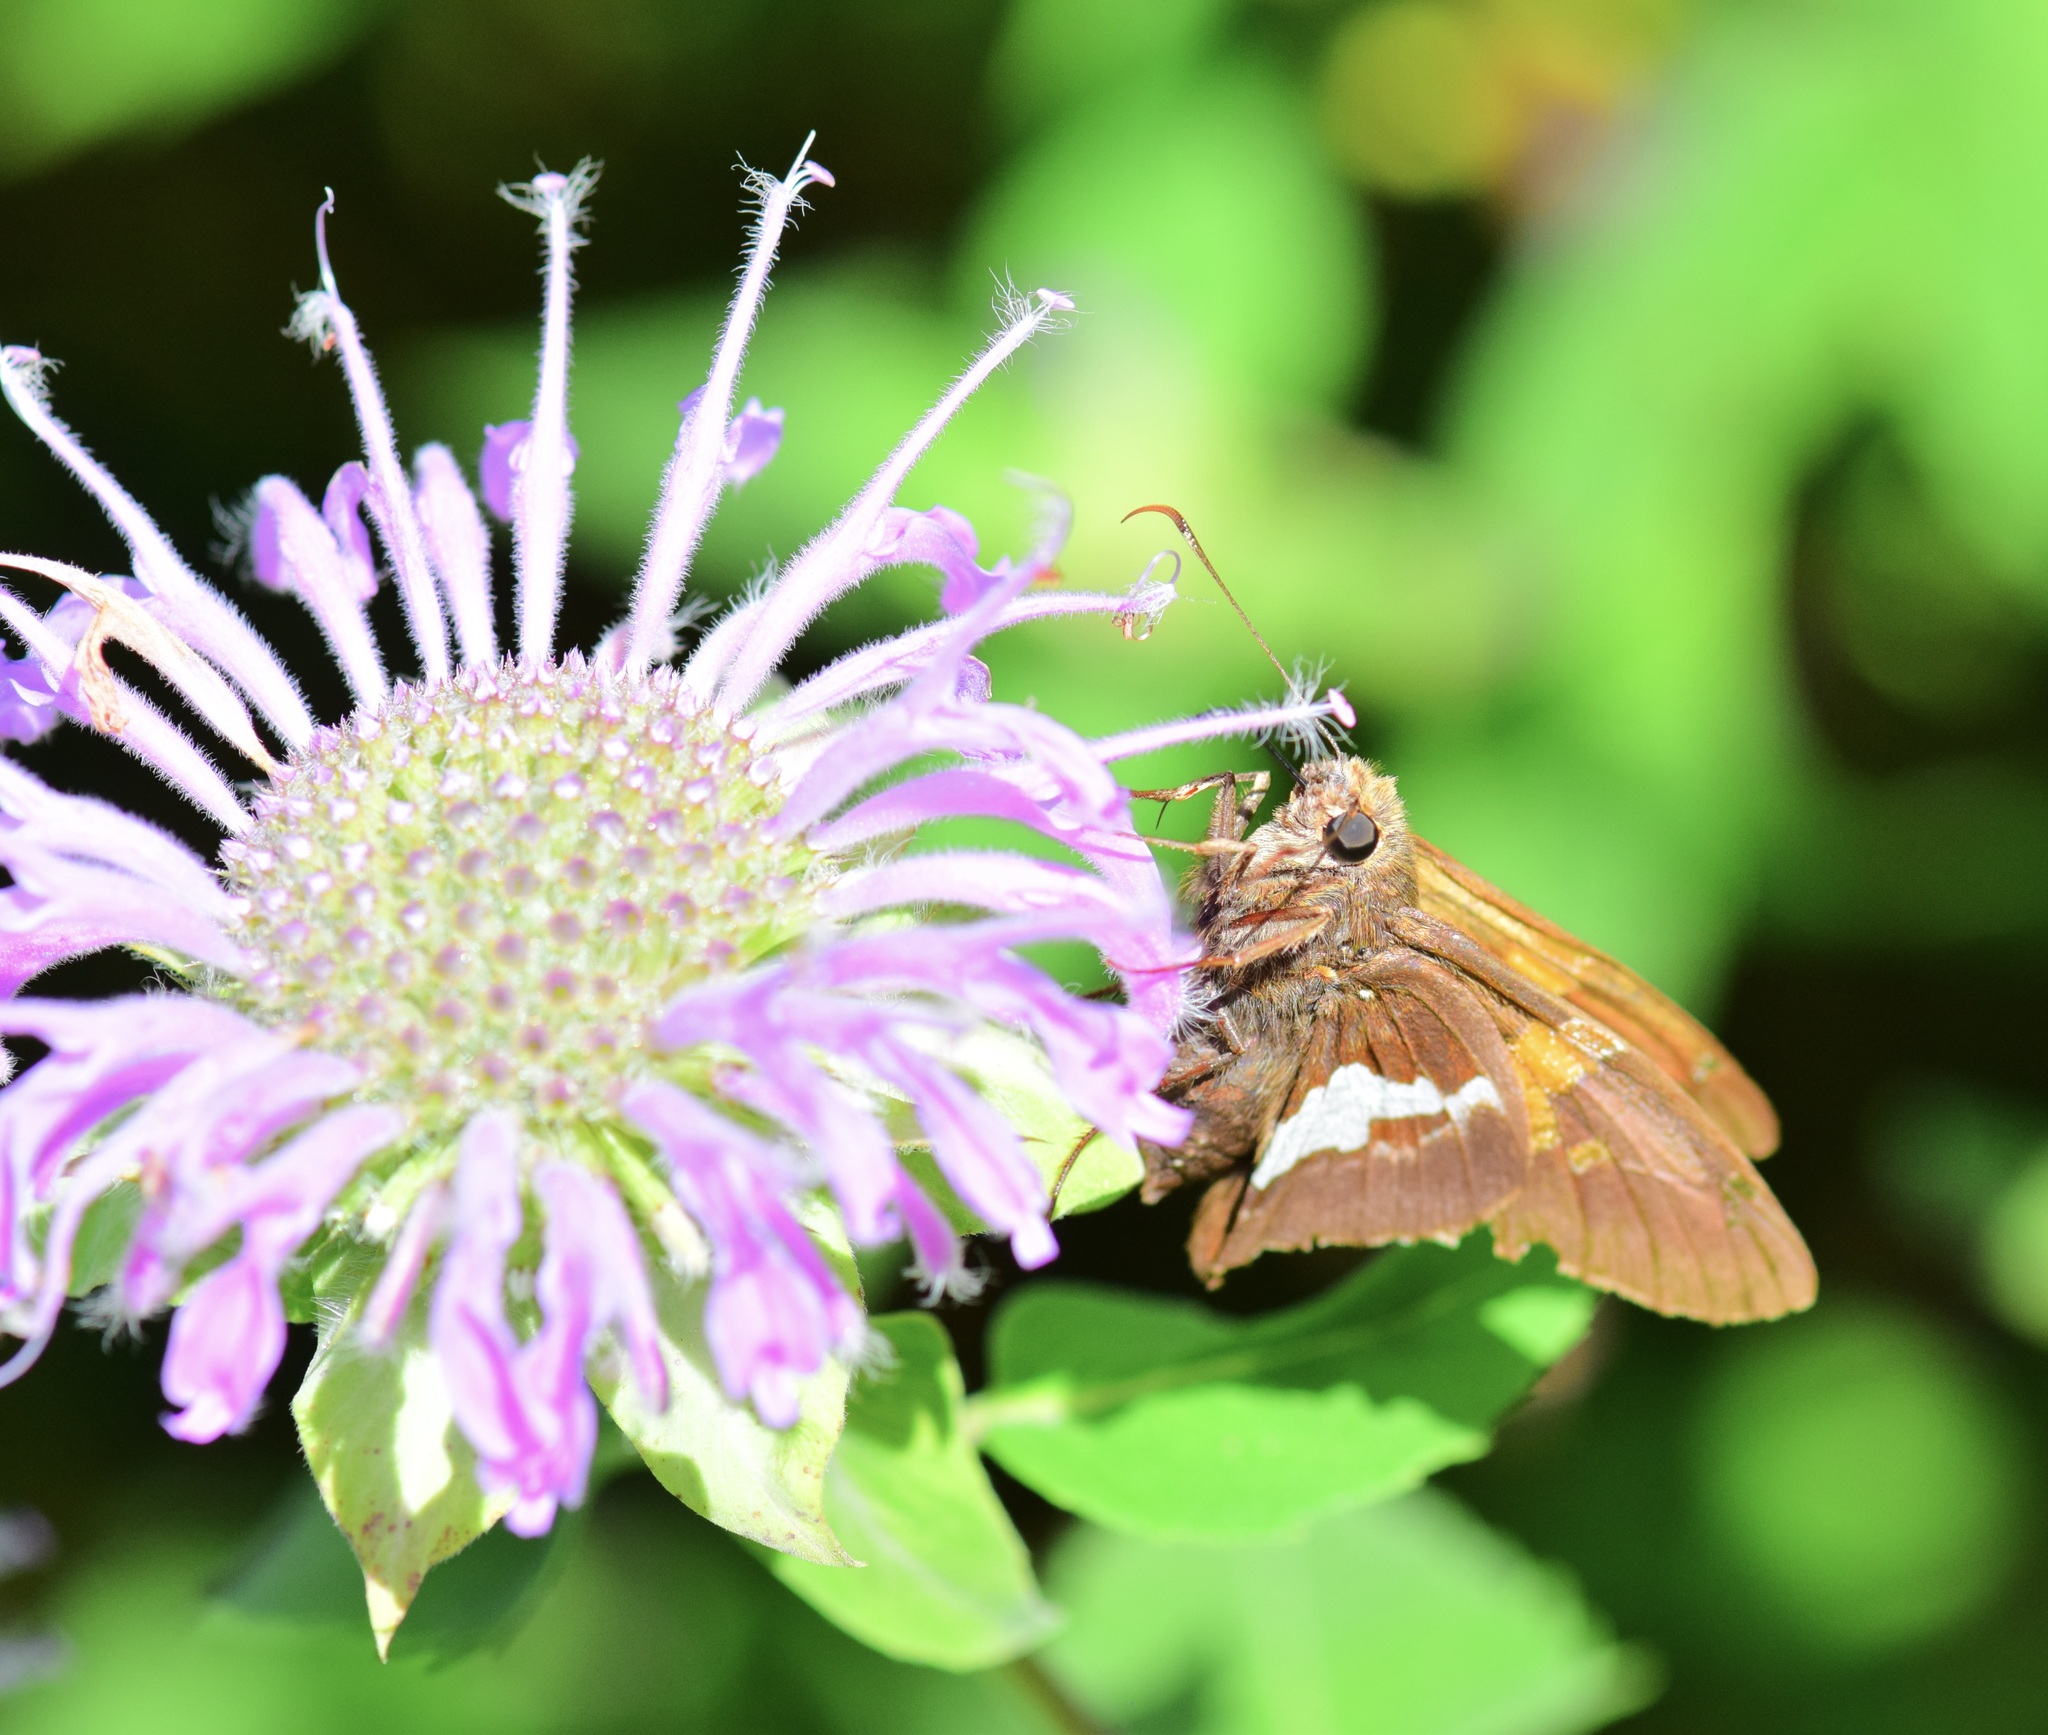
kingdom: Animalia
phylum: Arthropoda
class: Insecta
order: Lepidoptera
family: Hesperiidae
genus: Epargyreus
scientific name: Epargyreus clarus
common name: Silver-spotted skipper
